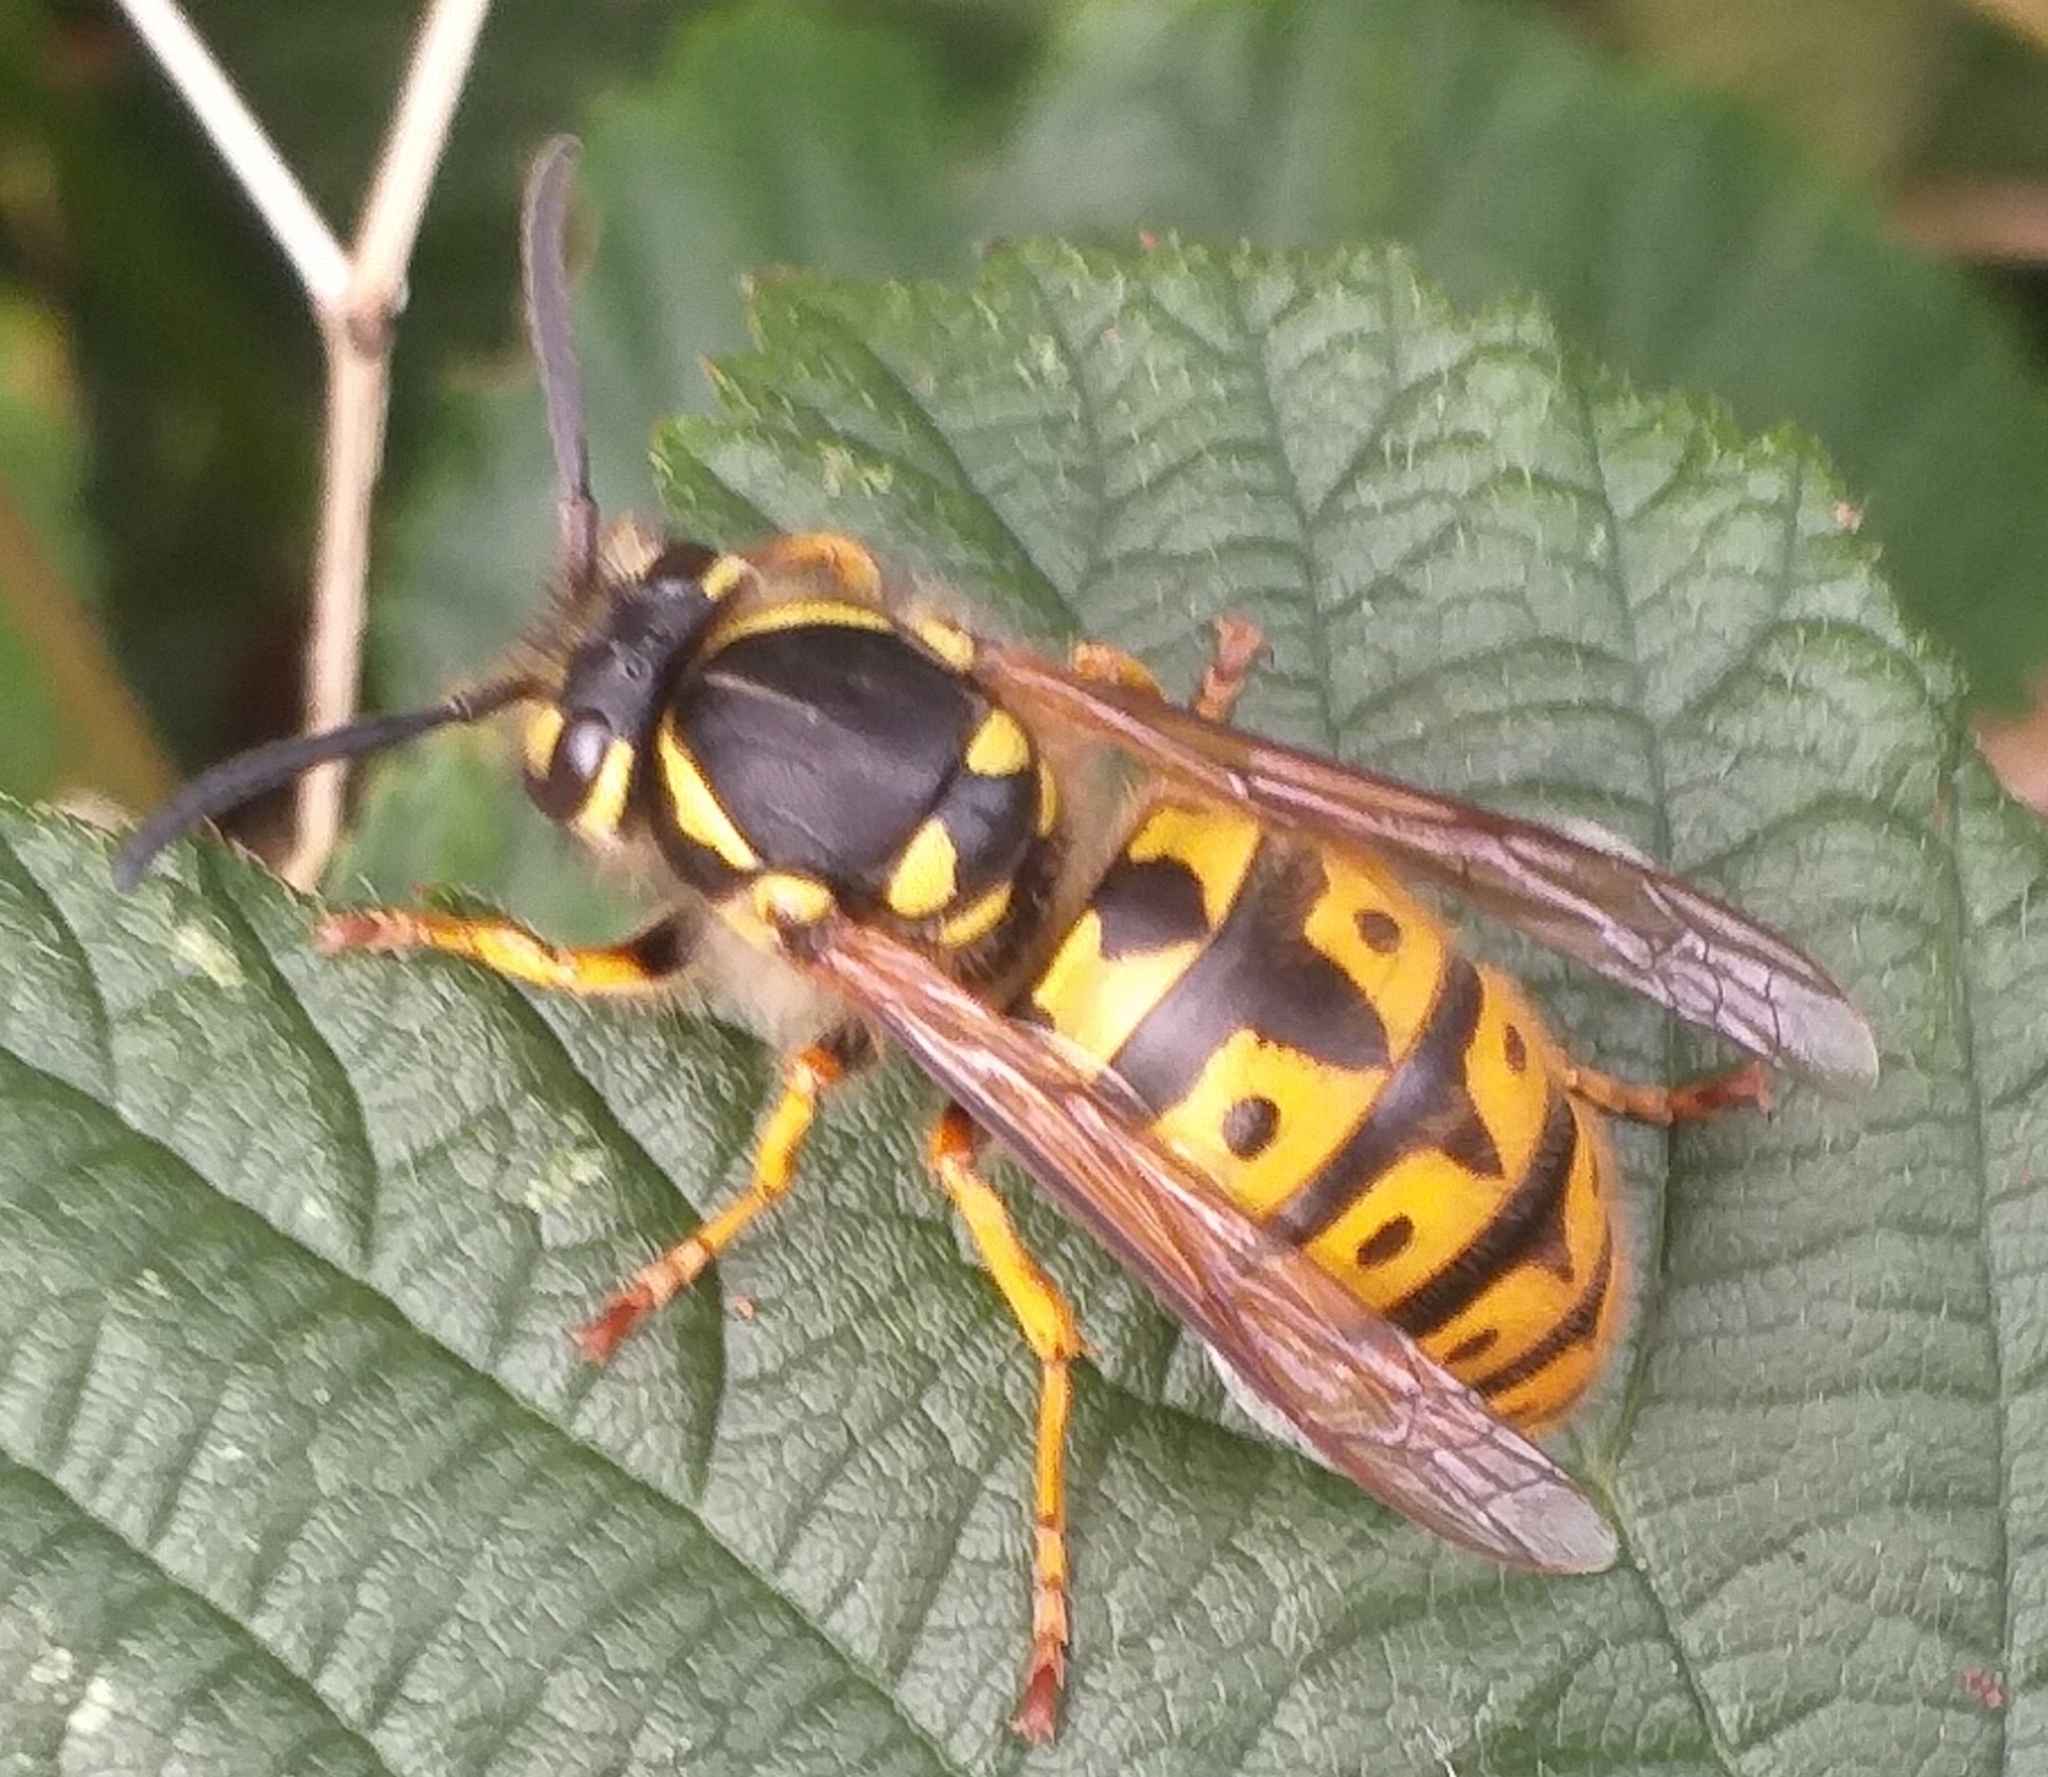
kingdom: Animalia
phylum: Arthropoda
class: Insecta
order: Hymenoptera
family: Vespidae
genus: Vespula
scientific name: Vespula germanica
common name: German wasp
